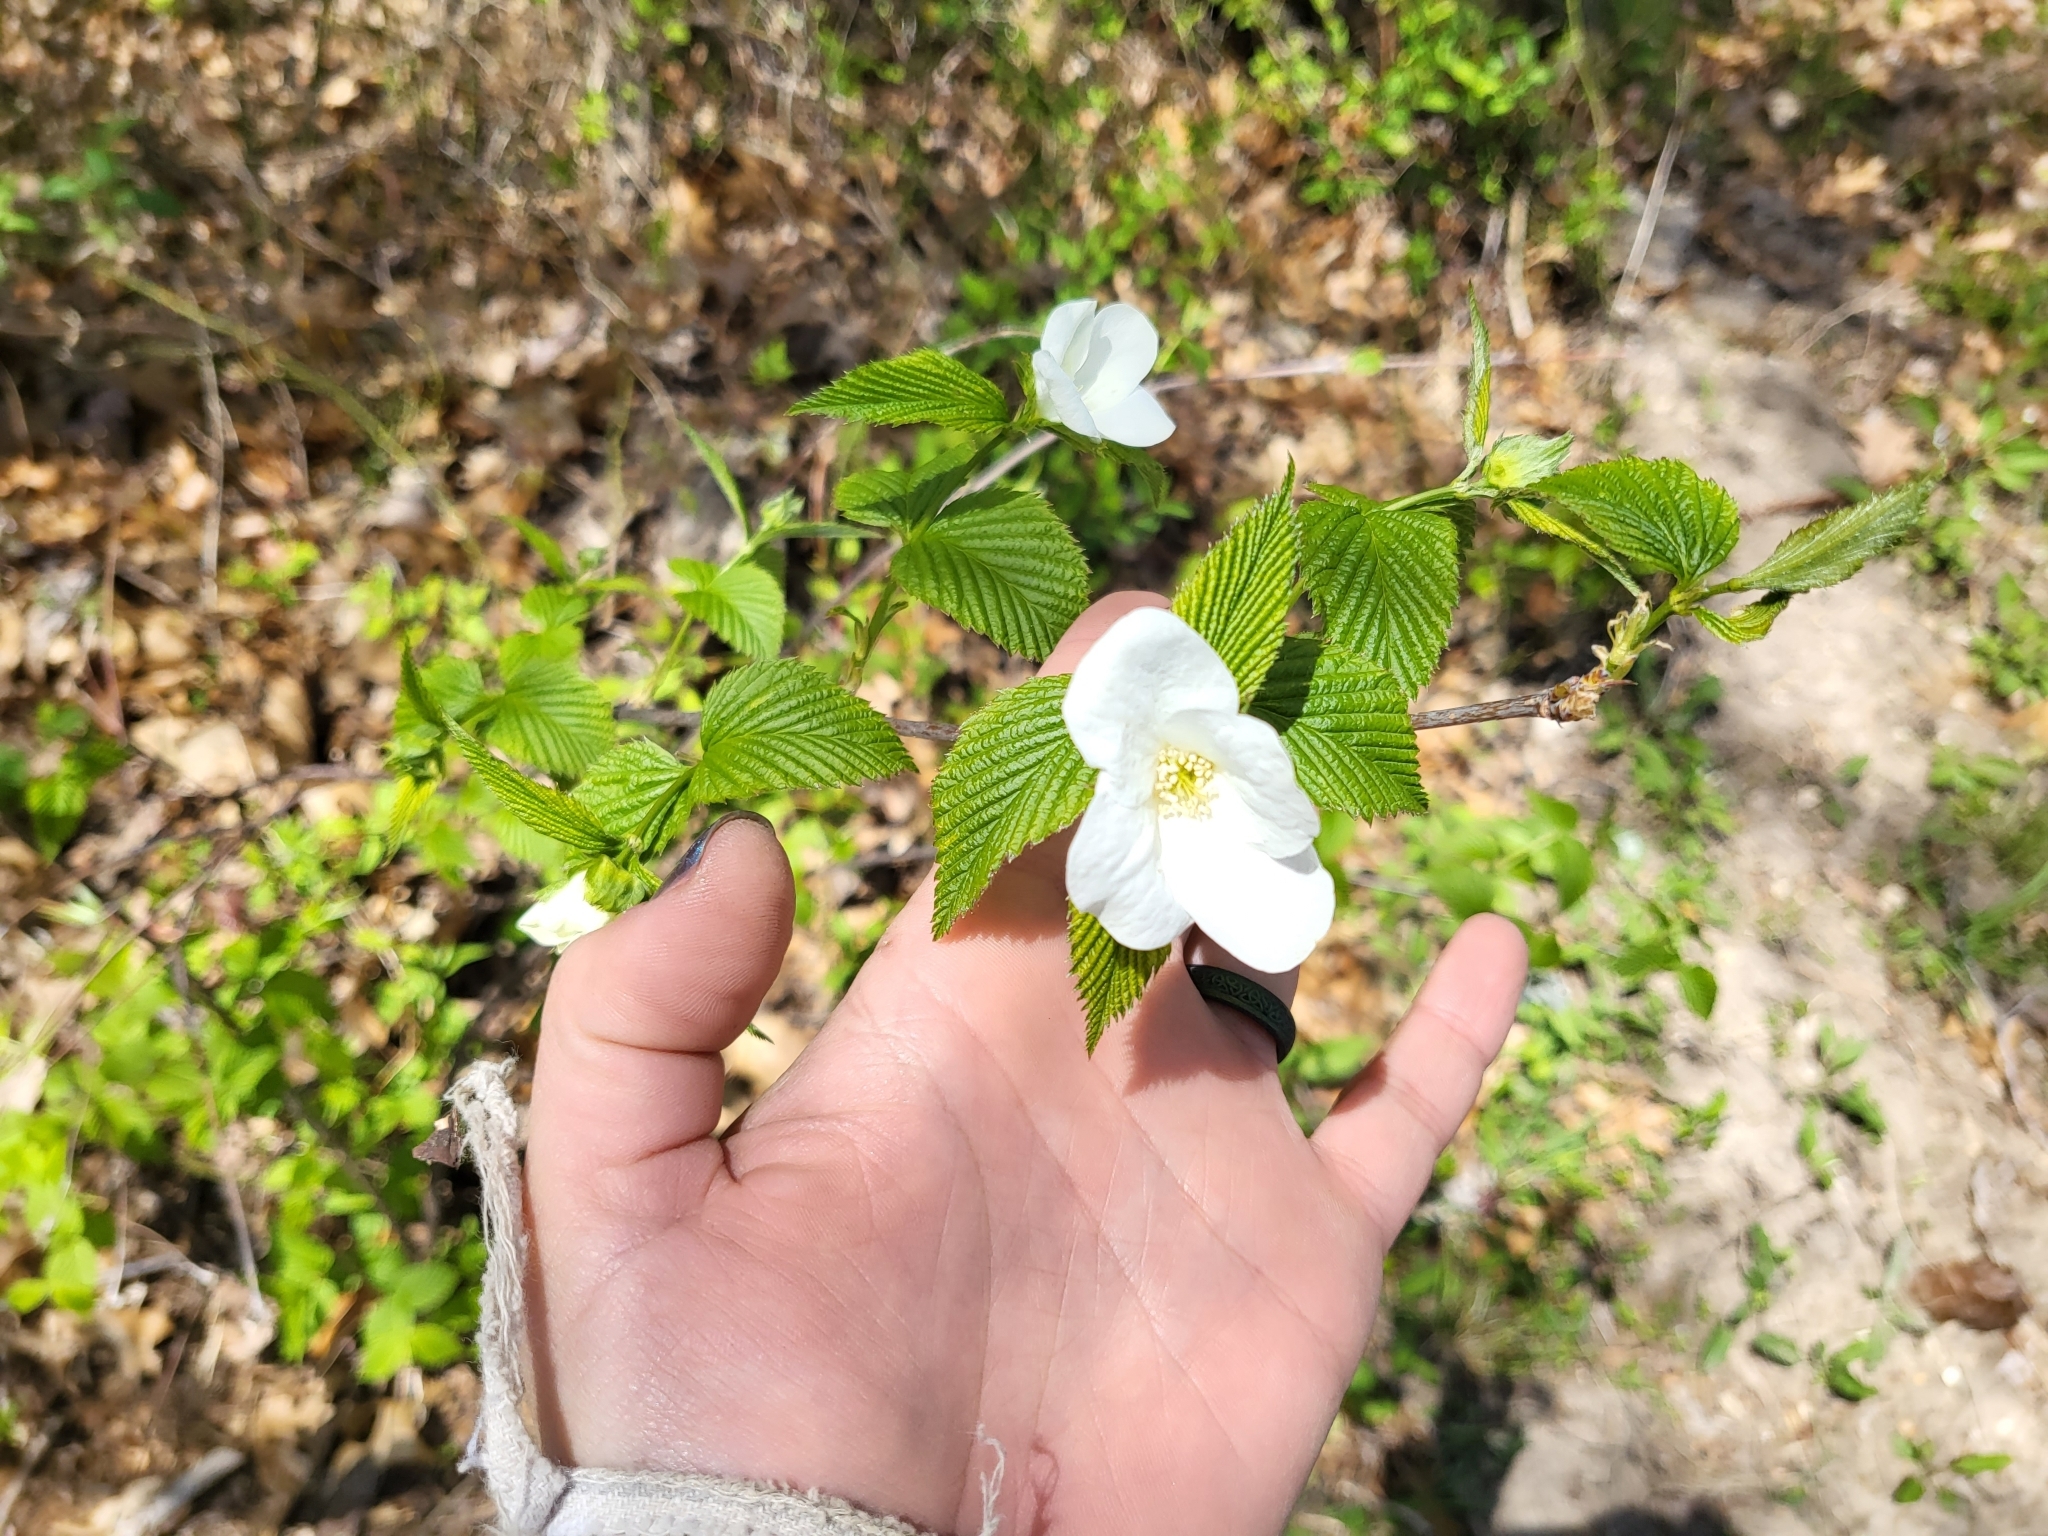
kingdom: Plantae
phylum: Tracheophyta
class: Magnoliopsida
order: Rosales
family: Rosaceae
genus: Rhodotypos
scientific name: Rhodotypos scandens
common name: Jetbead
